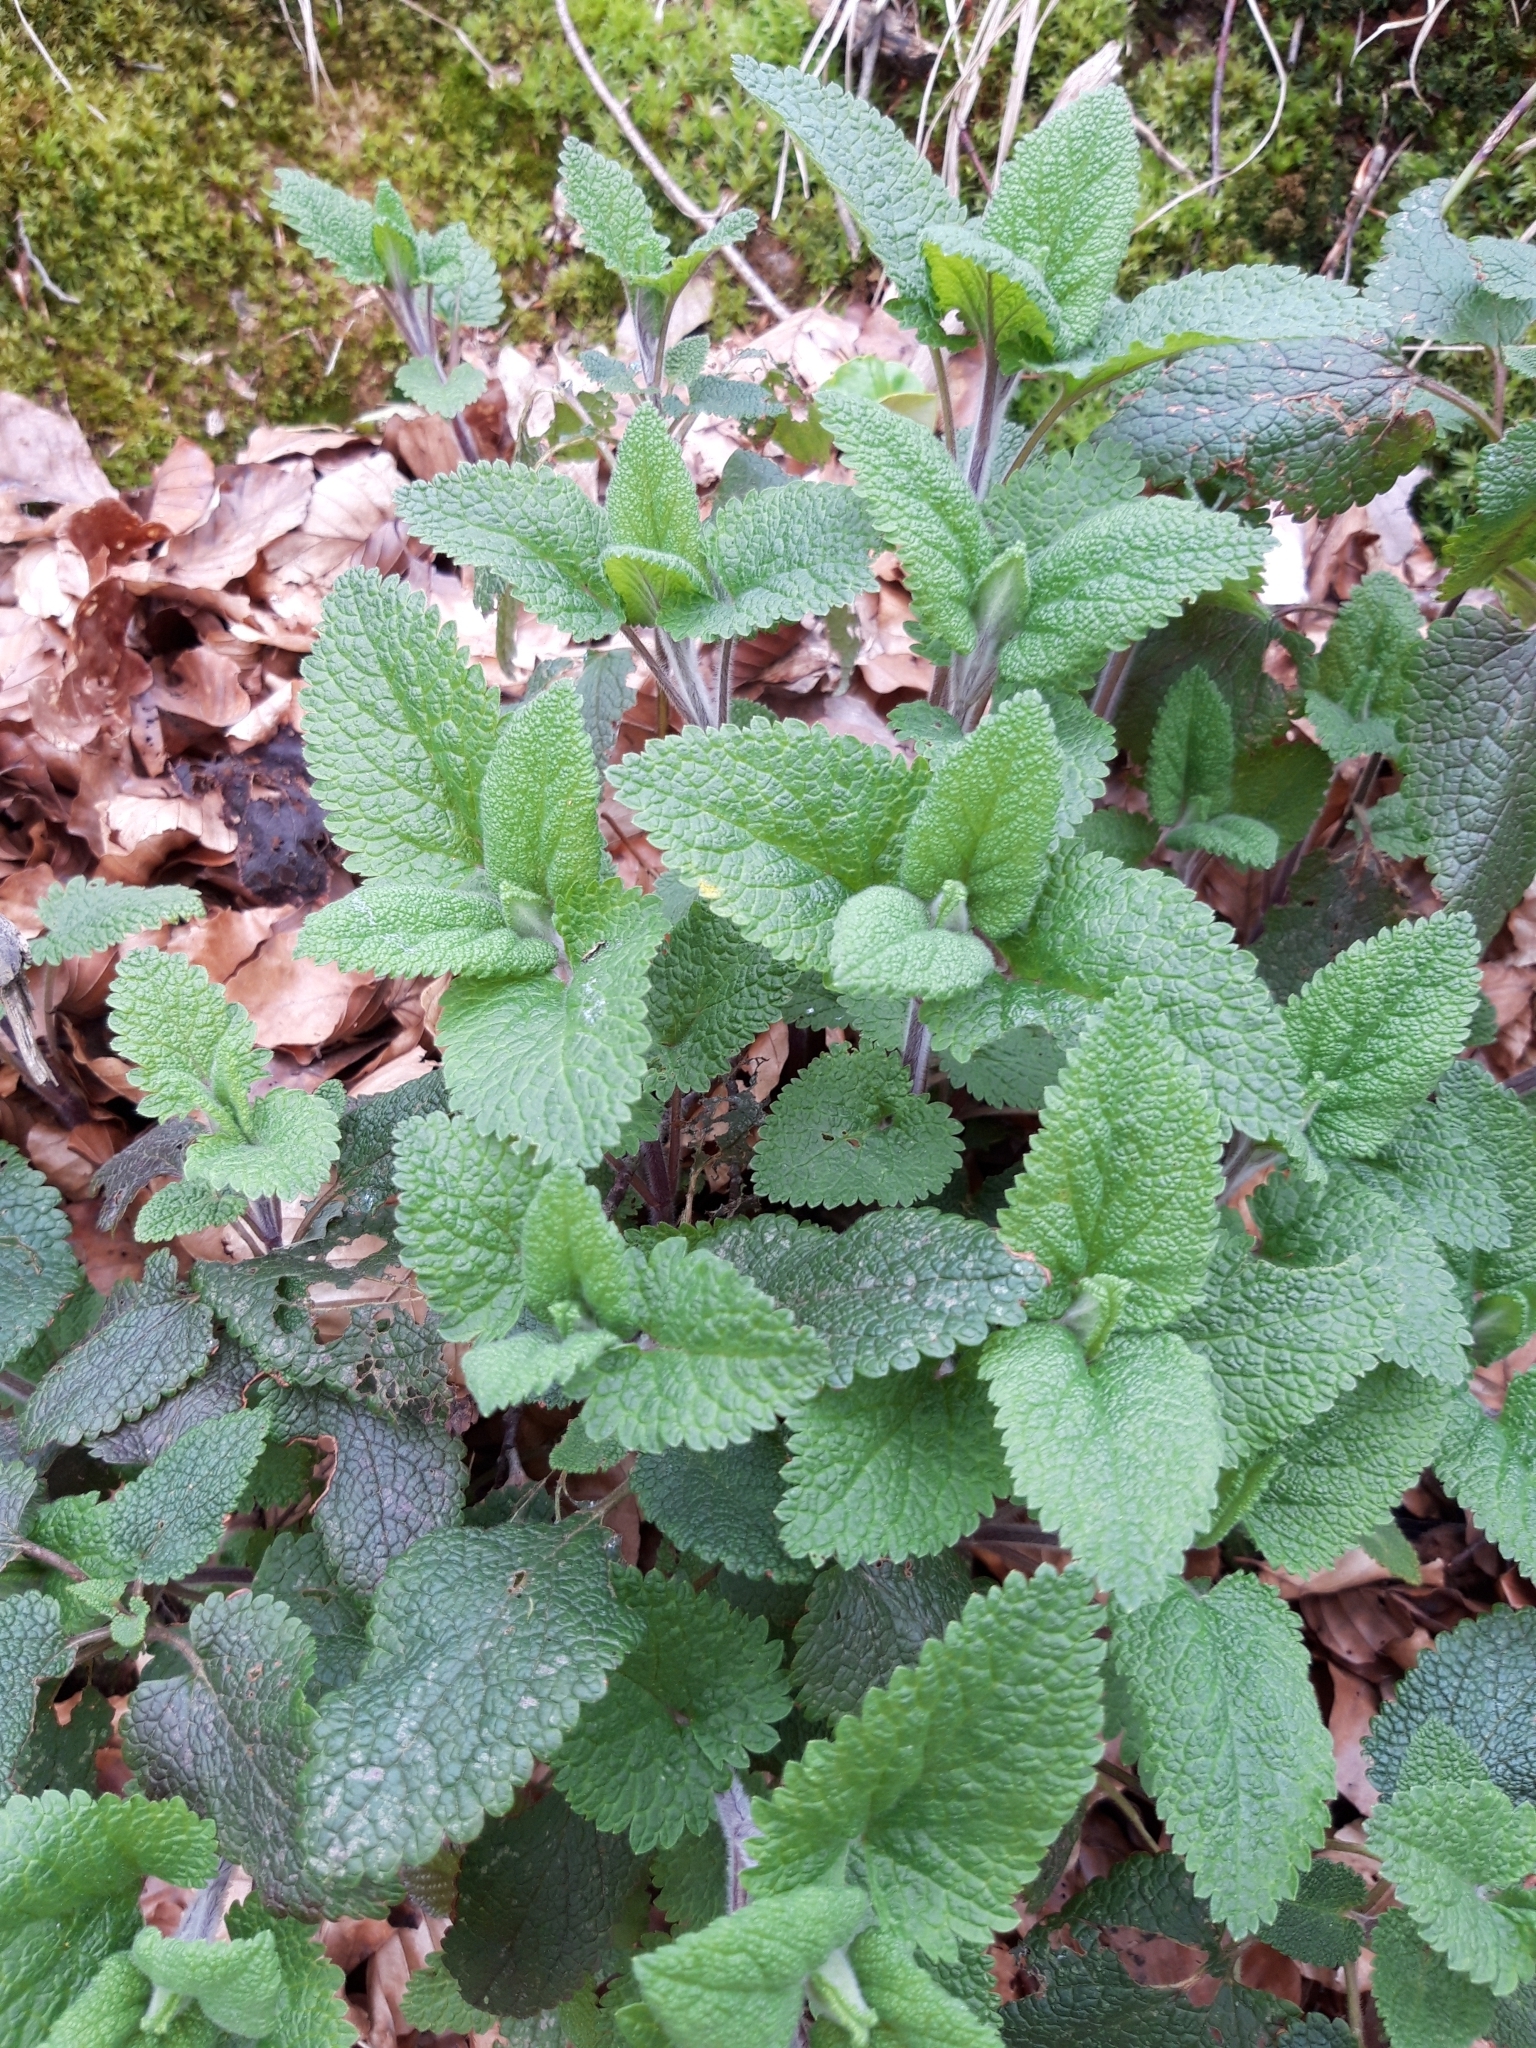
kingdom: Plantae
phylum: Tracheophyta
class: Magnoliopsida
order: Lamiales
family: Lamiaceae
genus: Teucrium
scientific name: Teucrium scorodonia
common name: Woodland germander
